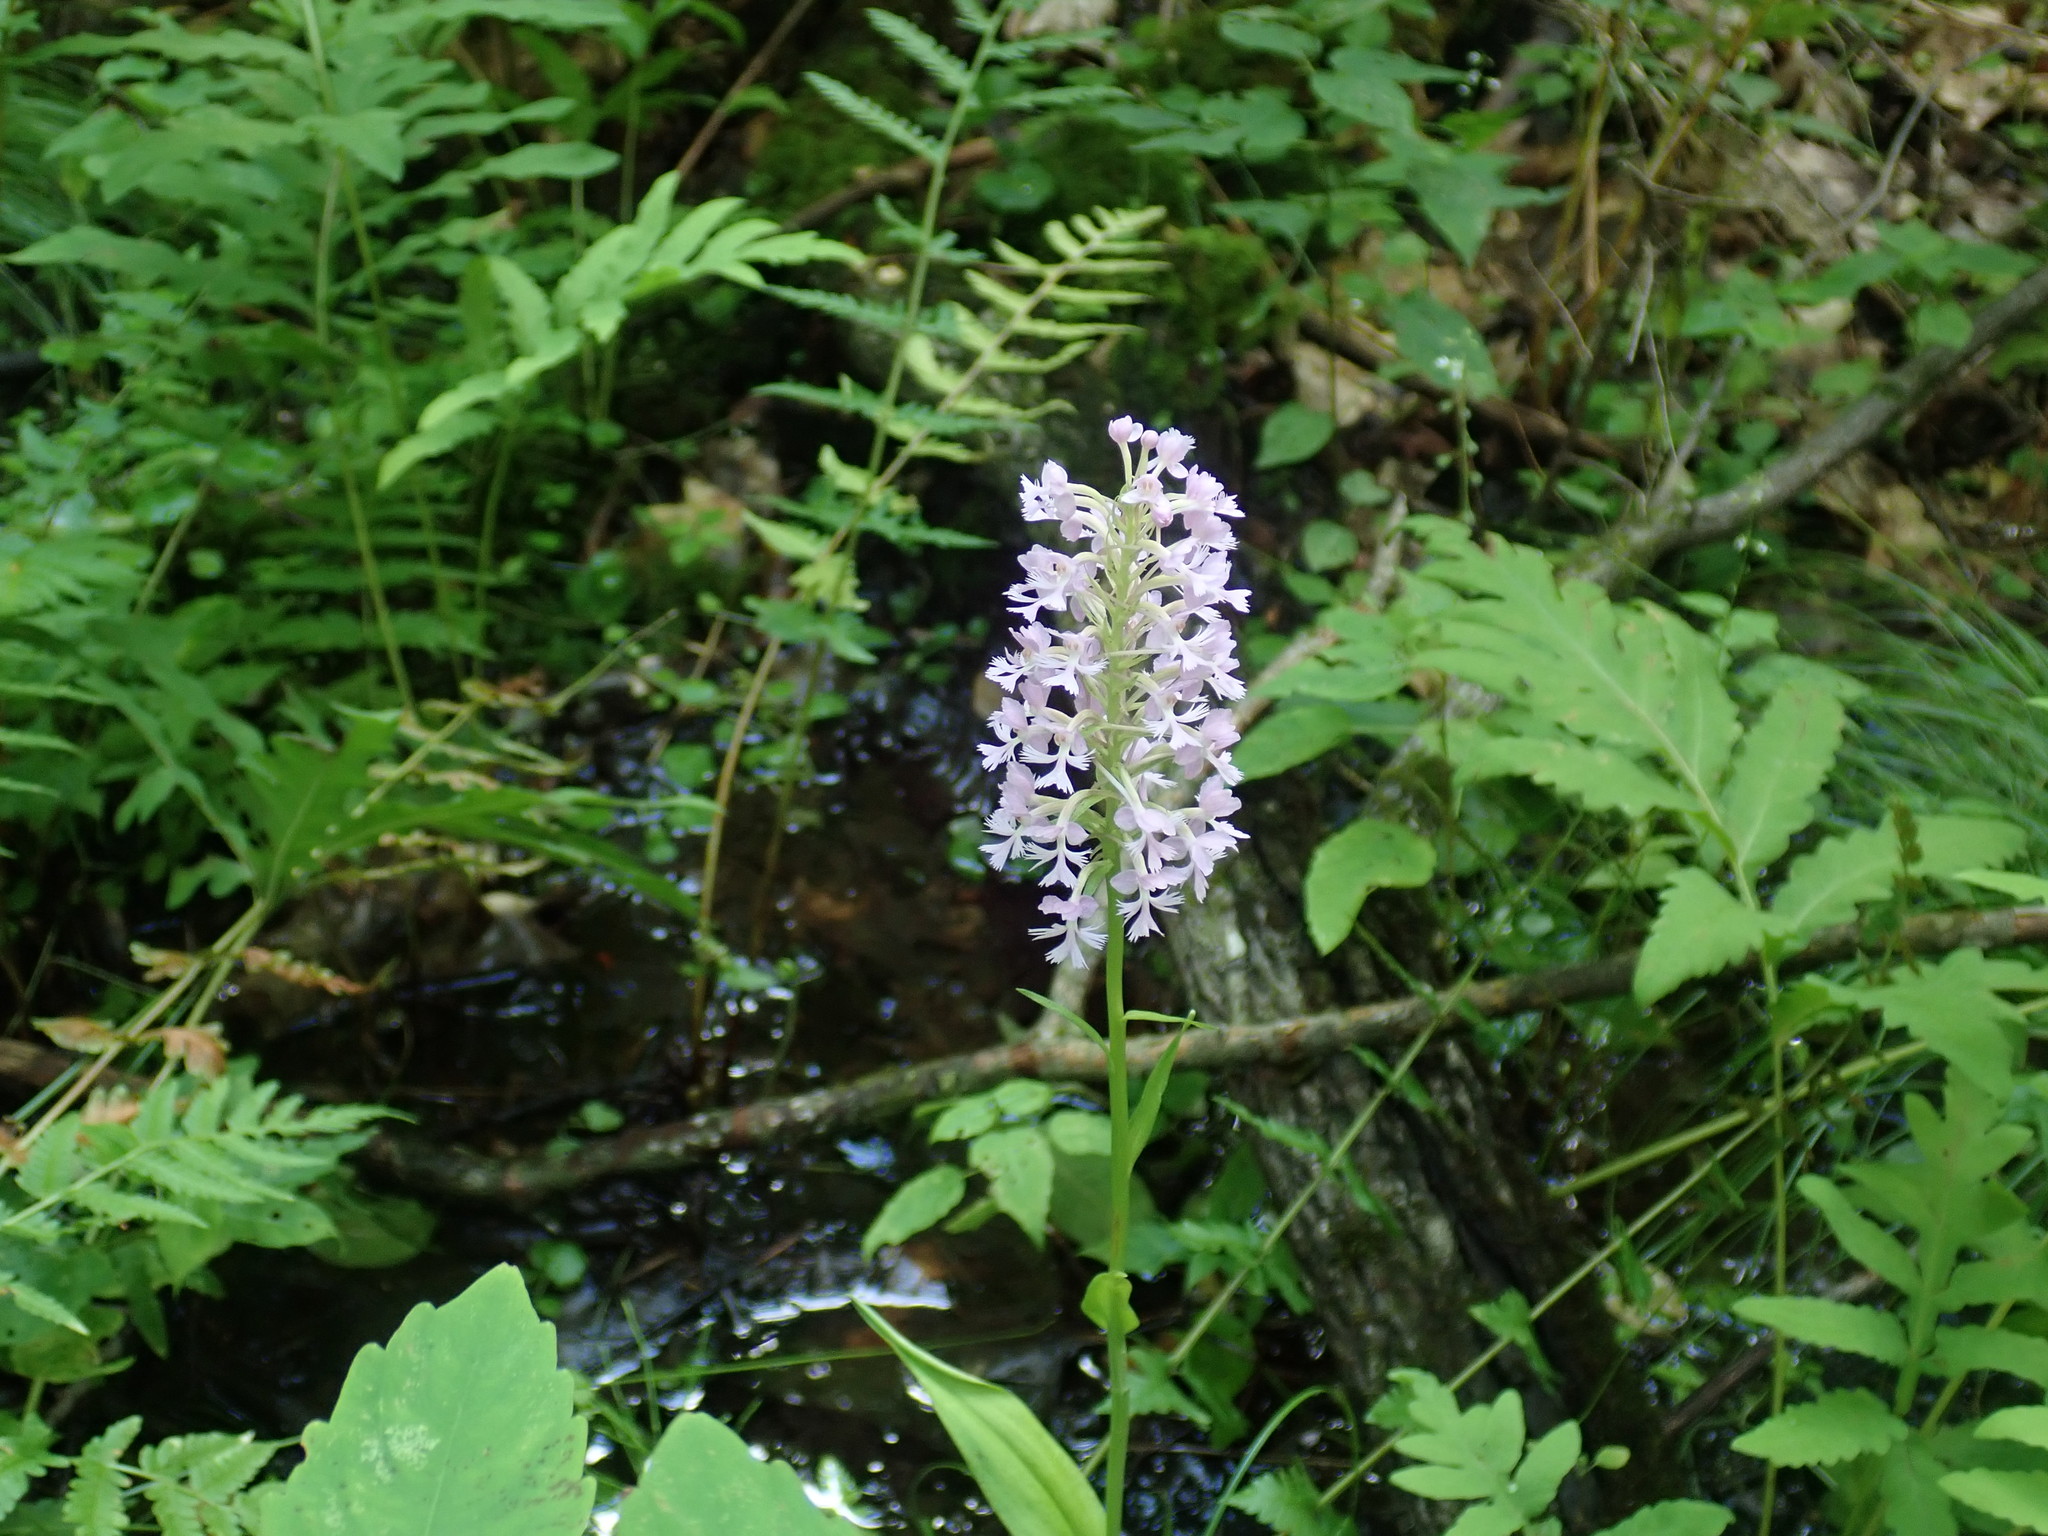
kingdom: Plantae
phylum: Tracheophyta
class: Liliopsida
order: Asparagales
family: Orchidaceae
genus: Platanthera
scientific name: Platanthera psycodes
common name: Lesser purple fringed orchid
